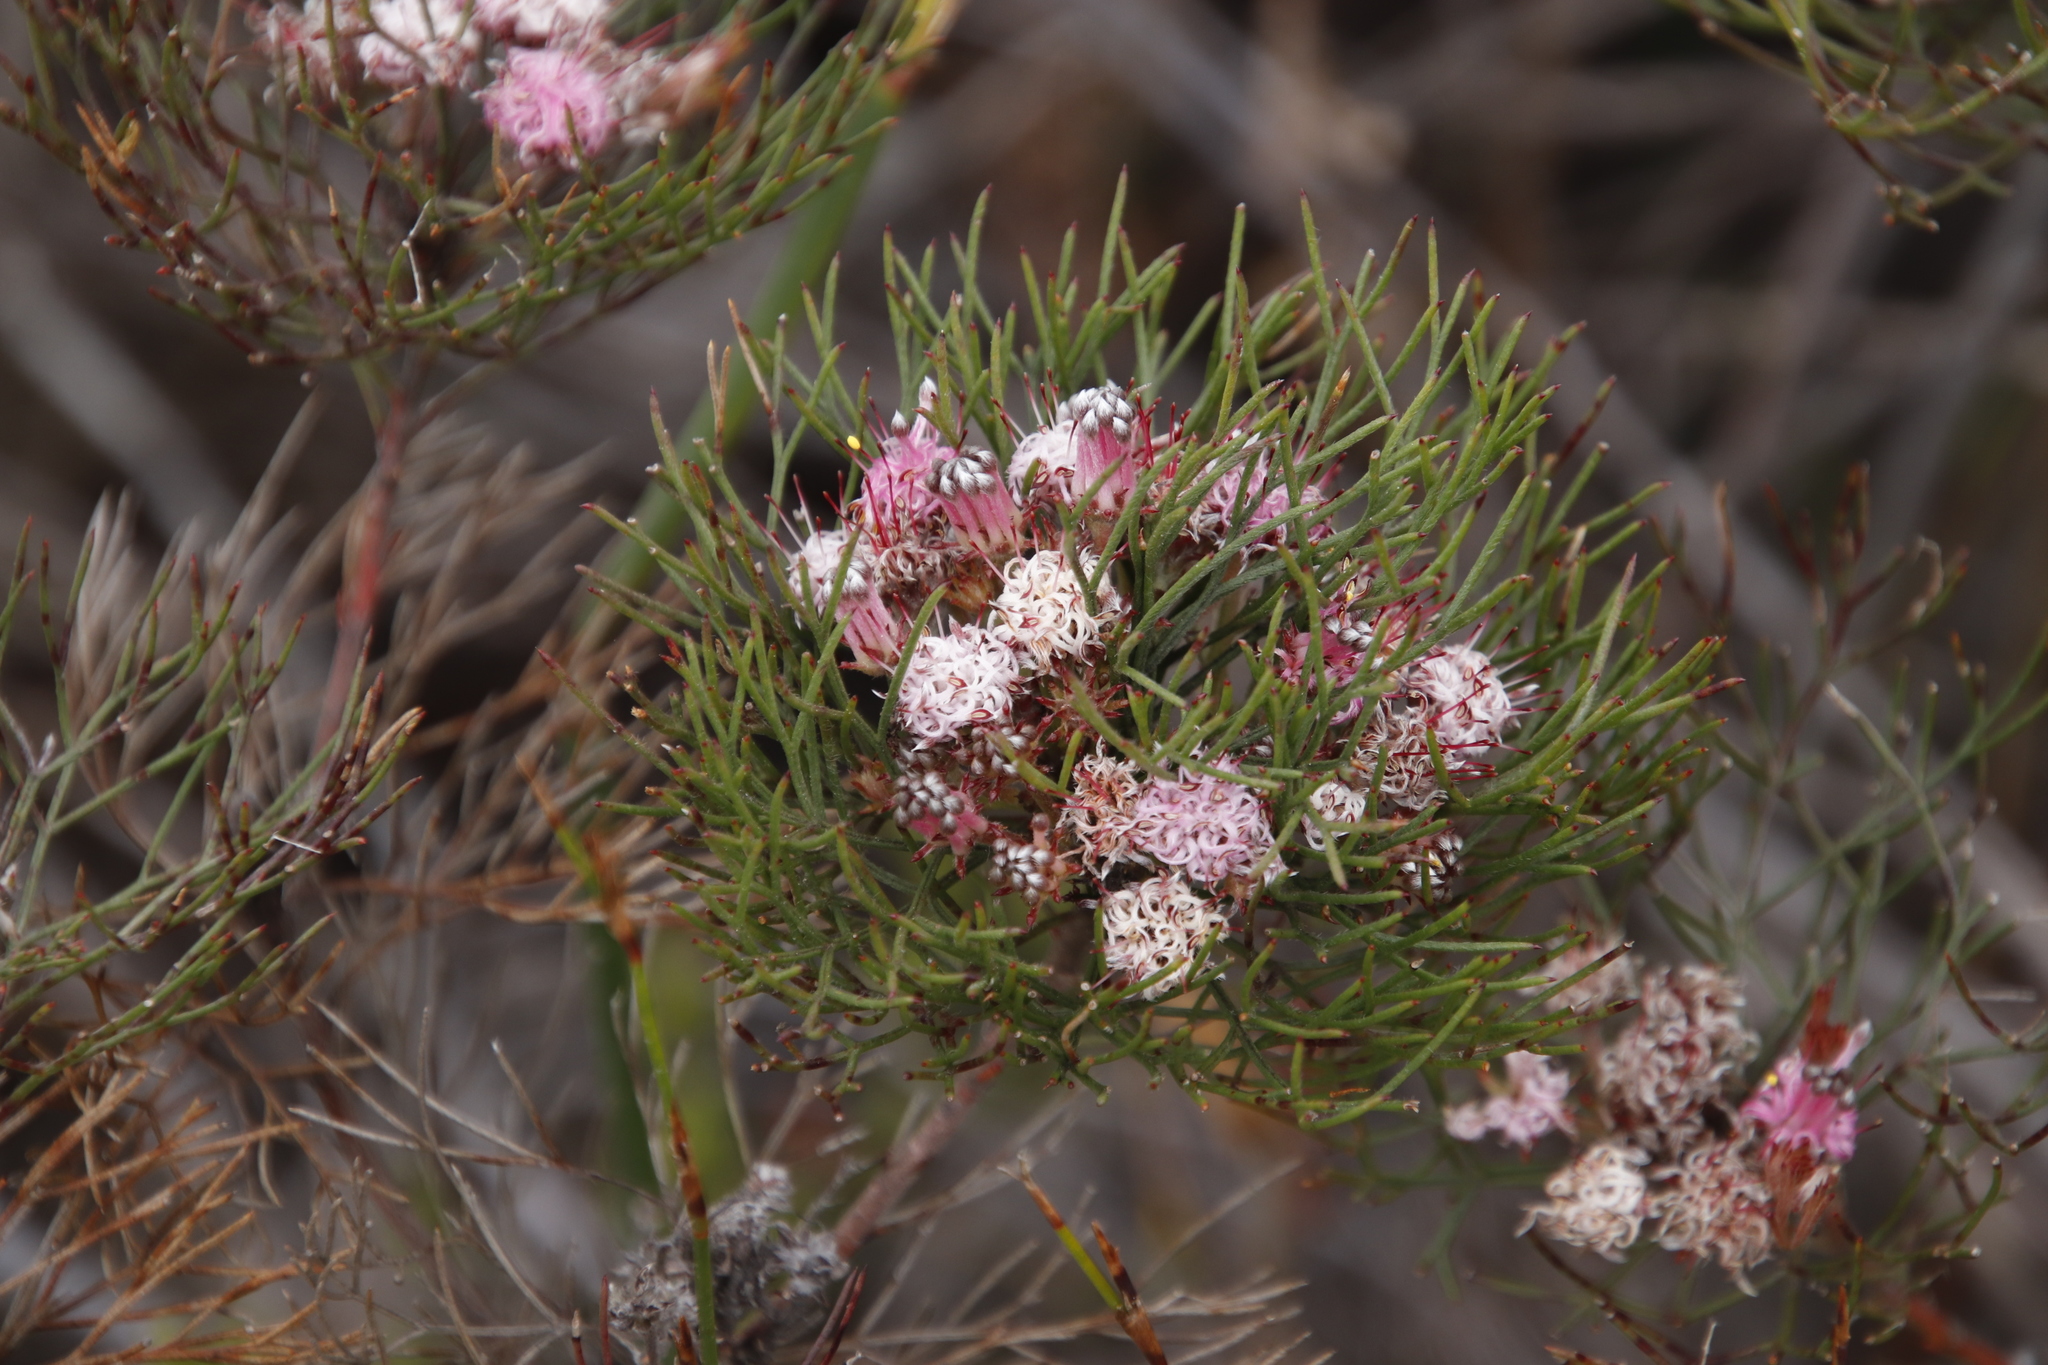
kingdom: Plantae
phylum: Tracheophyta
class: Magnoliopsida
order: Proteales
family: Proteaceae
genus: Serruria
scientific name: Serruria fasciflora
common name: Common pin spiderhead
